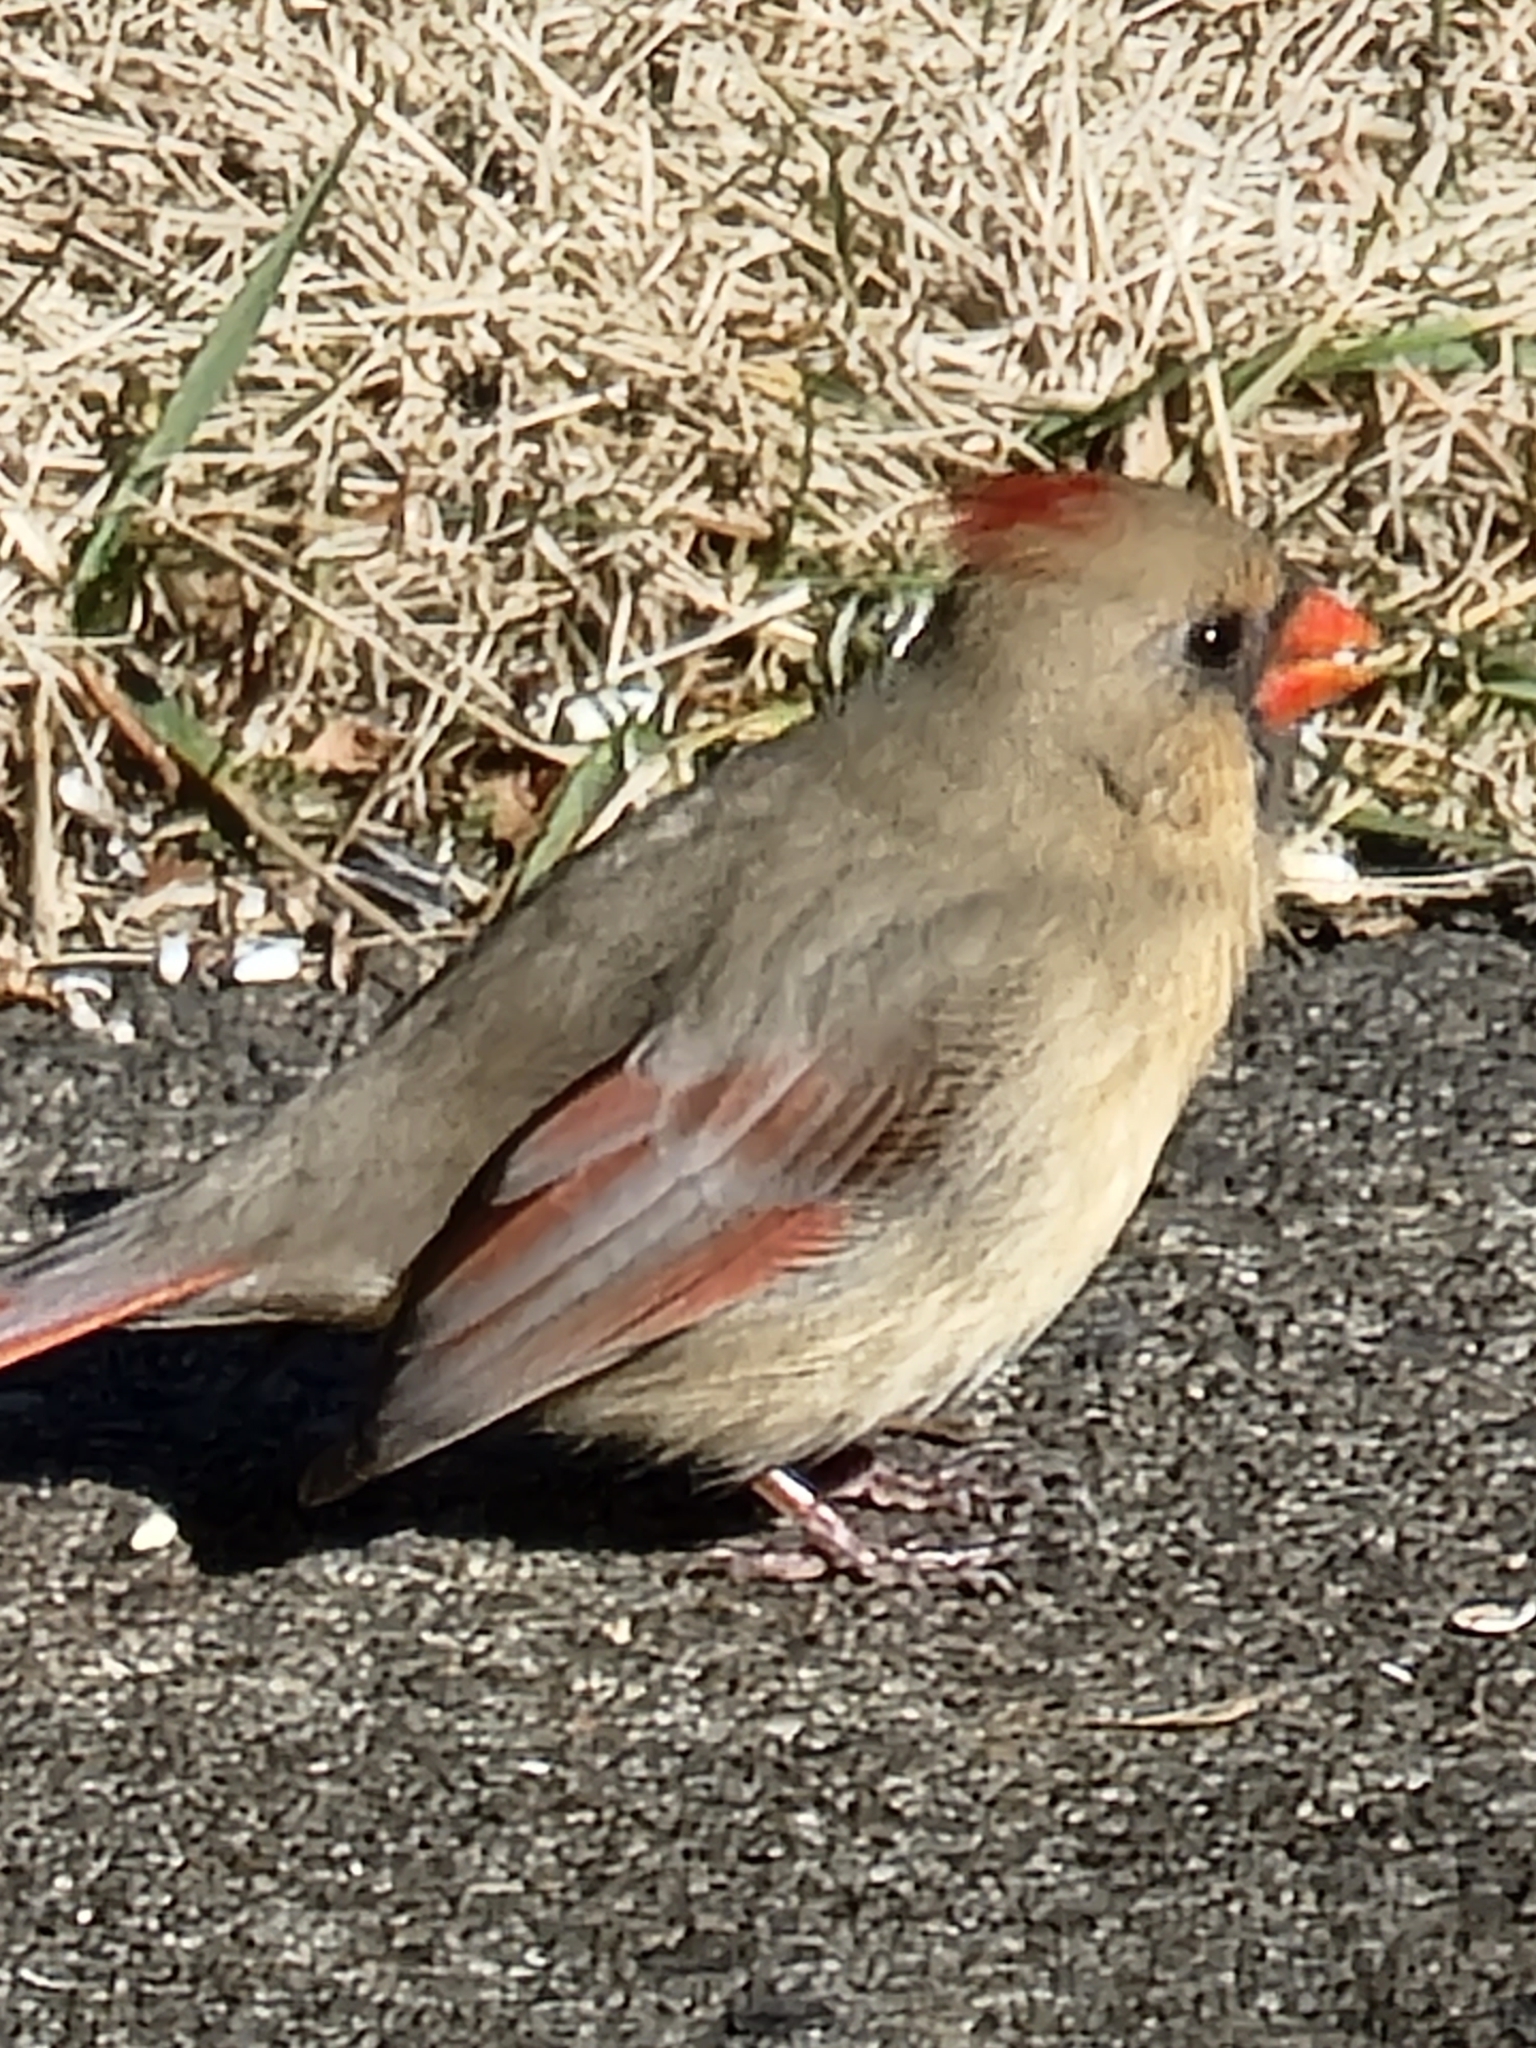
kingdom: Animalia
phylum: Chordata
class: Aves
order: Passeriformes
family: Cardinalidae
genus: Cardinalis
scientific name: Cardinalis cardinalis
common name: Northern cardinal
